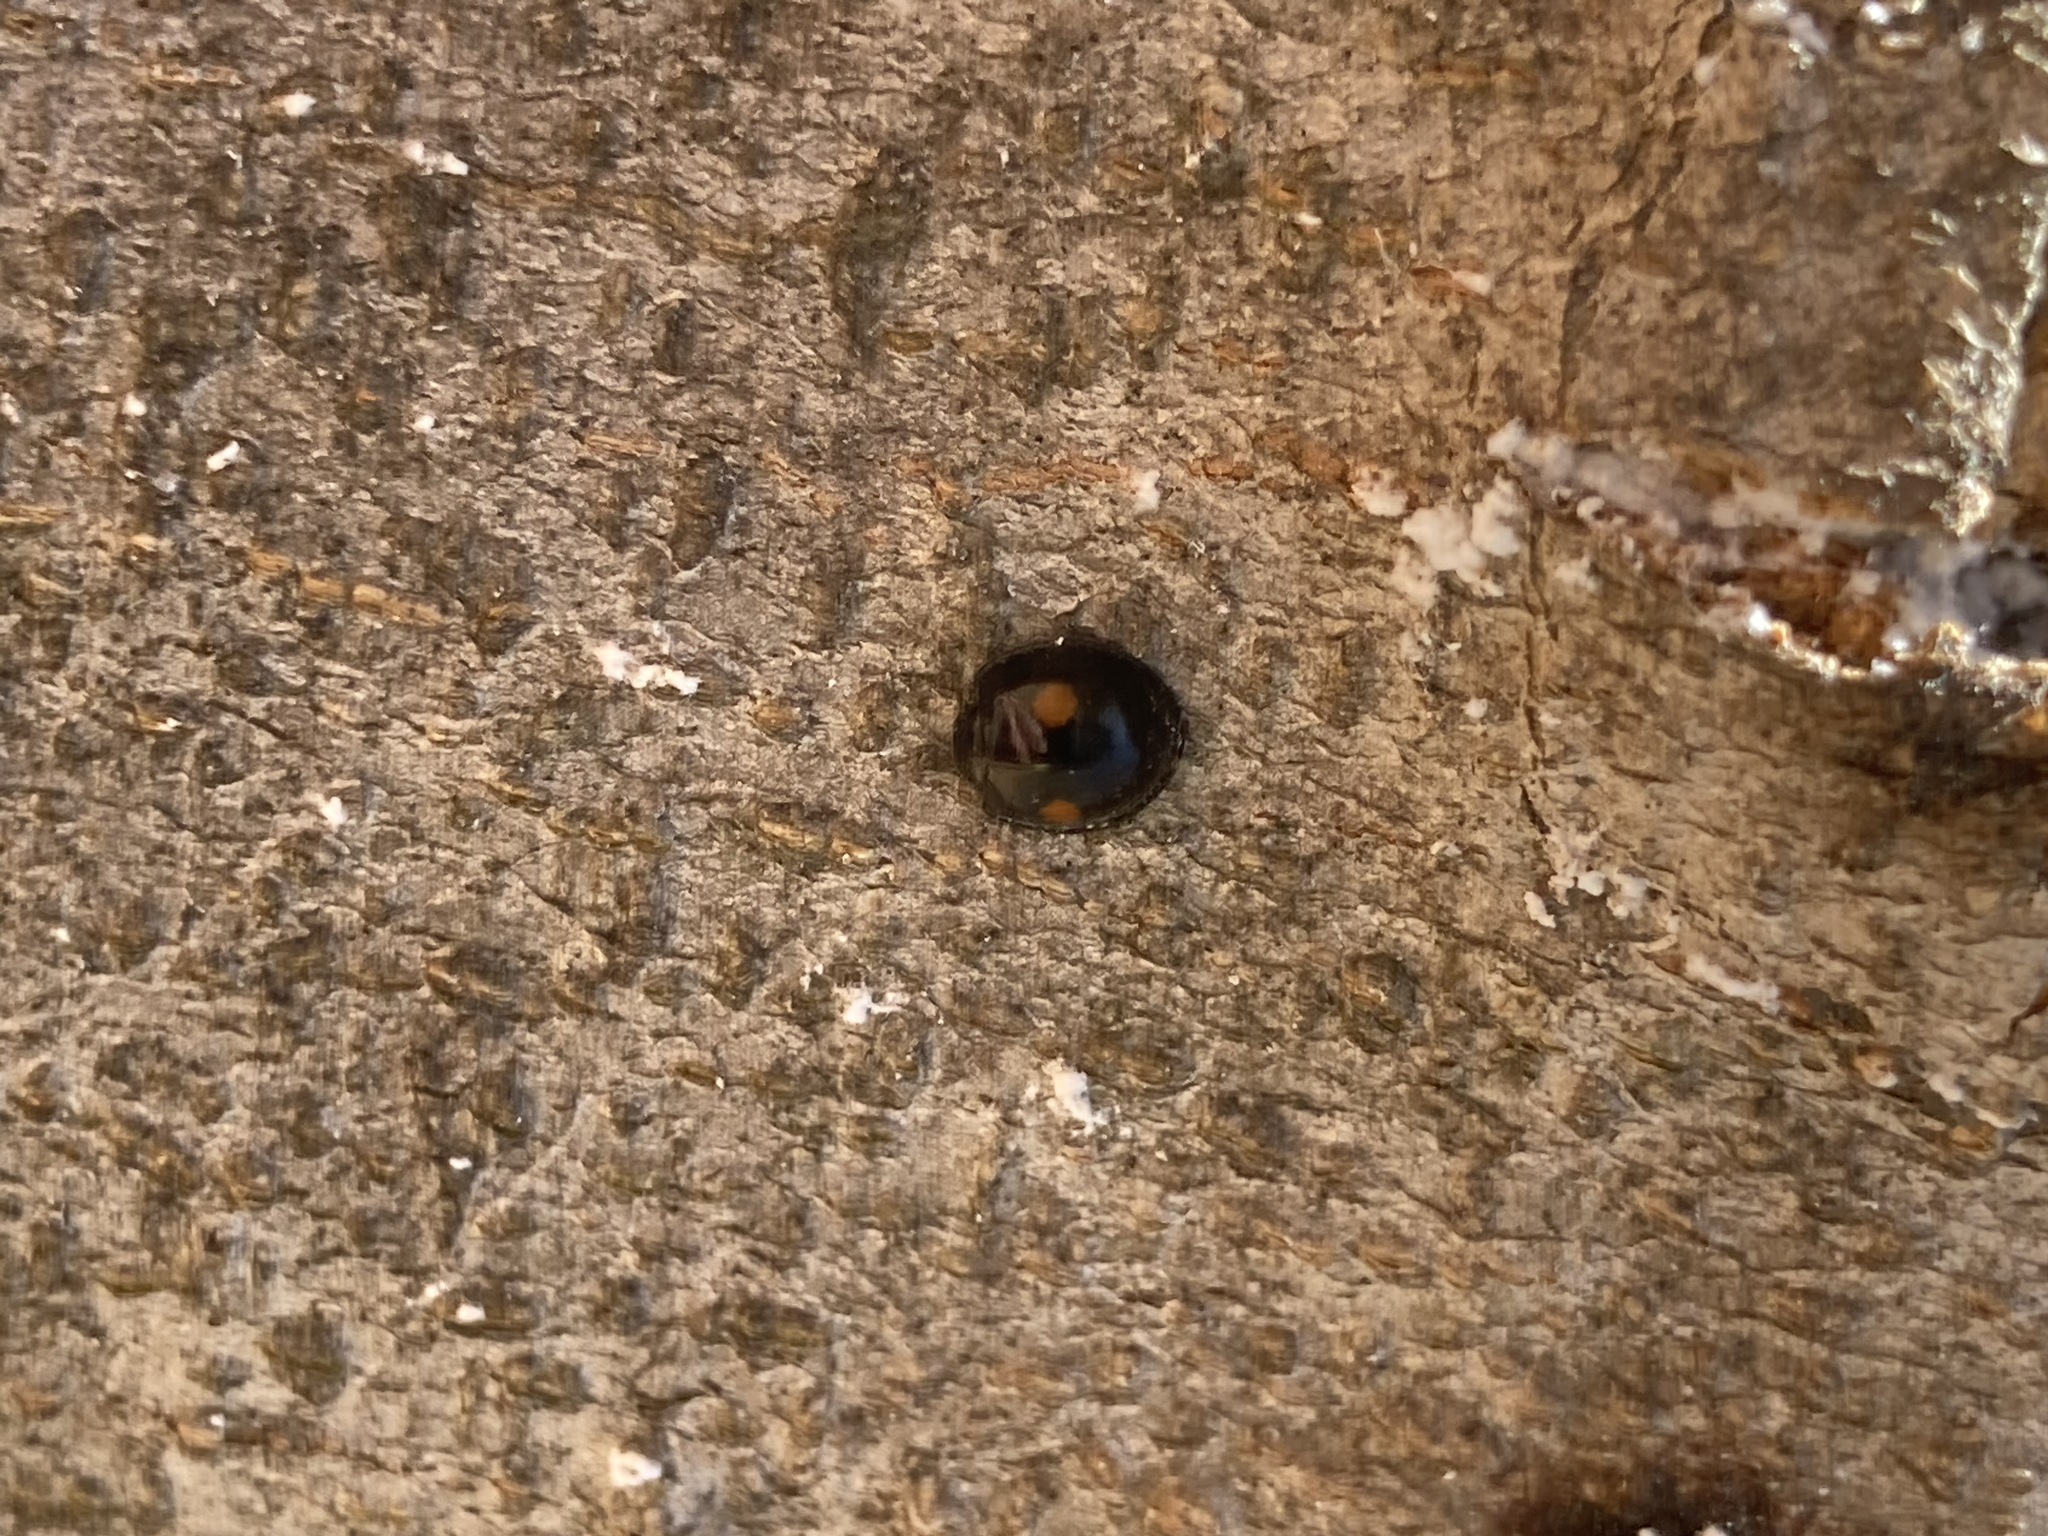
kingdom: Animalia
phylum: Arthropoda
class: Insecta
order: Coleoptera
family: Coccinellidae
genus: Chilocorus
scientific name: Chilocorus stigma
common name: Twicestabbed lady beetle
